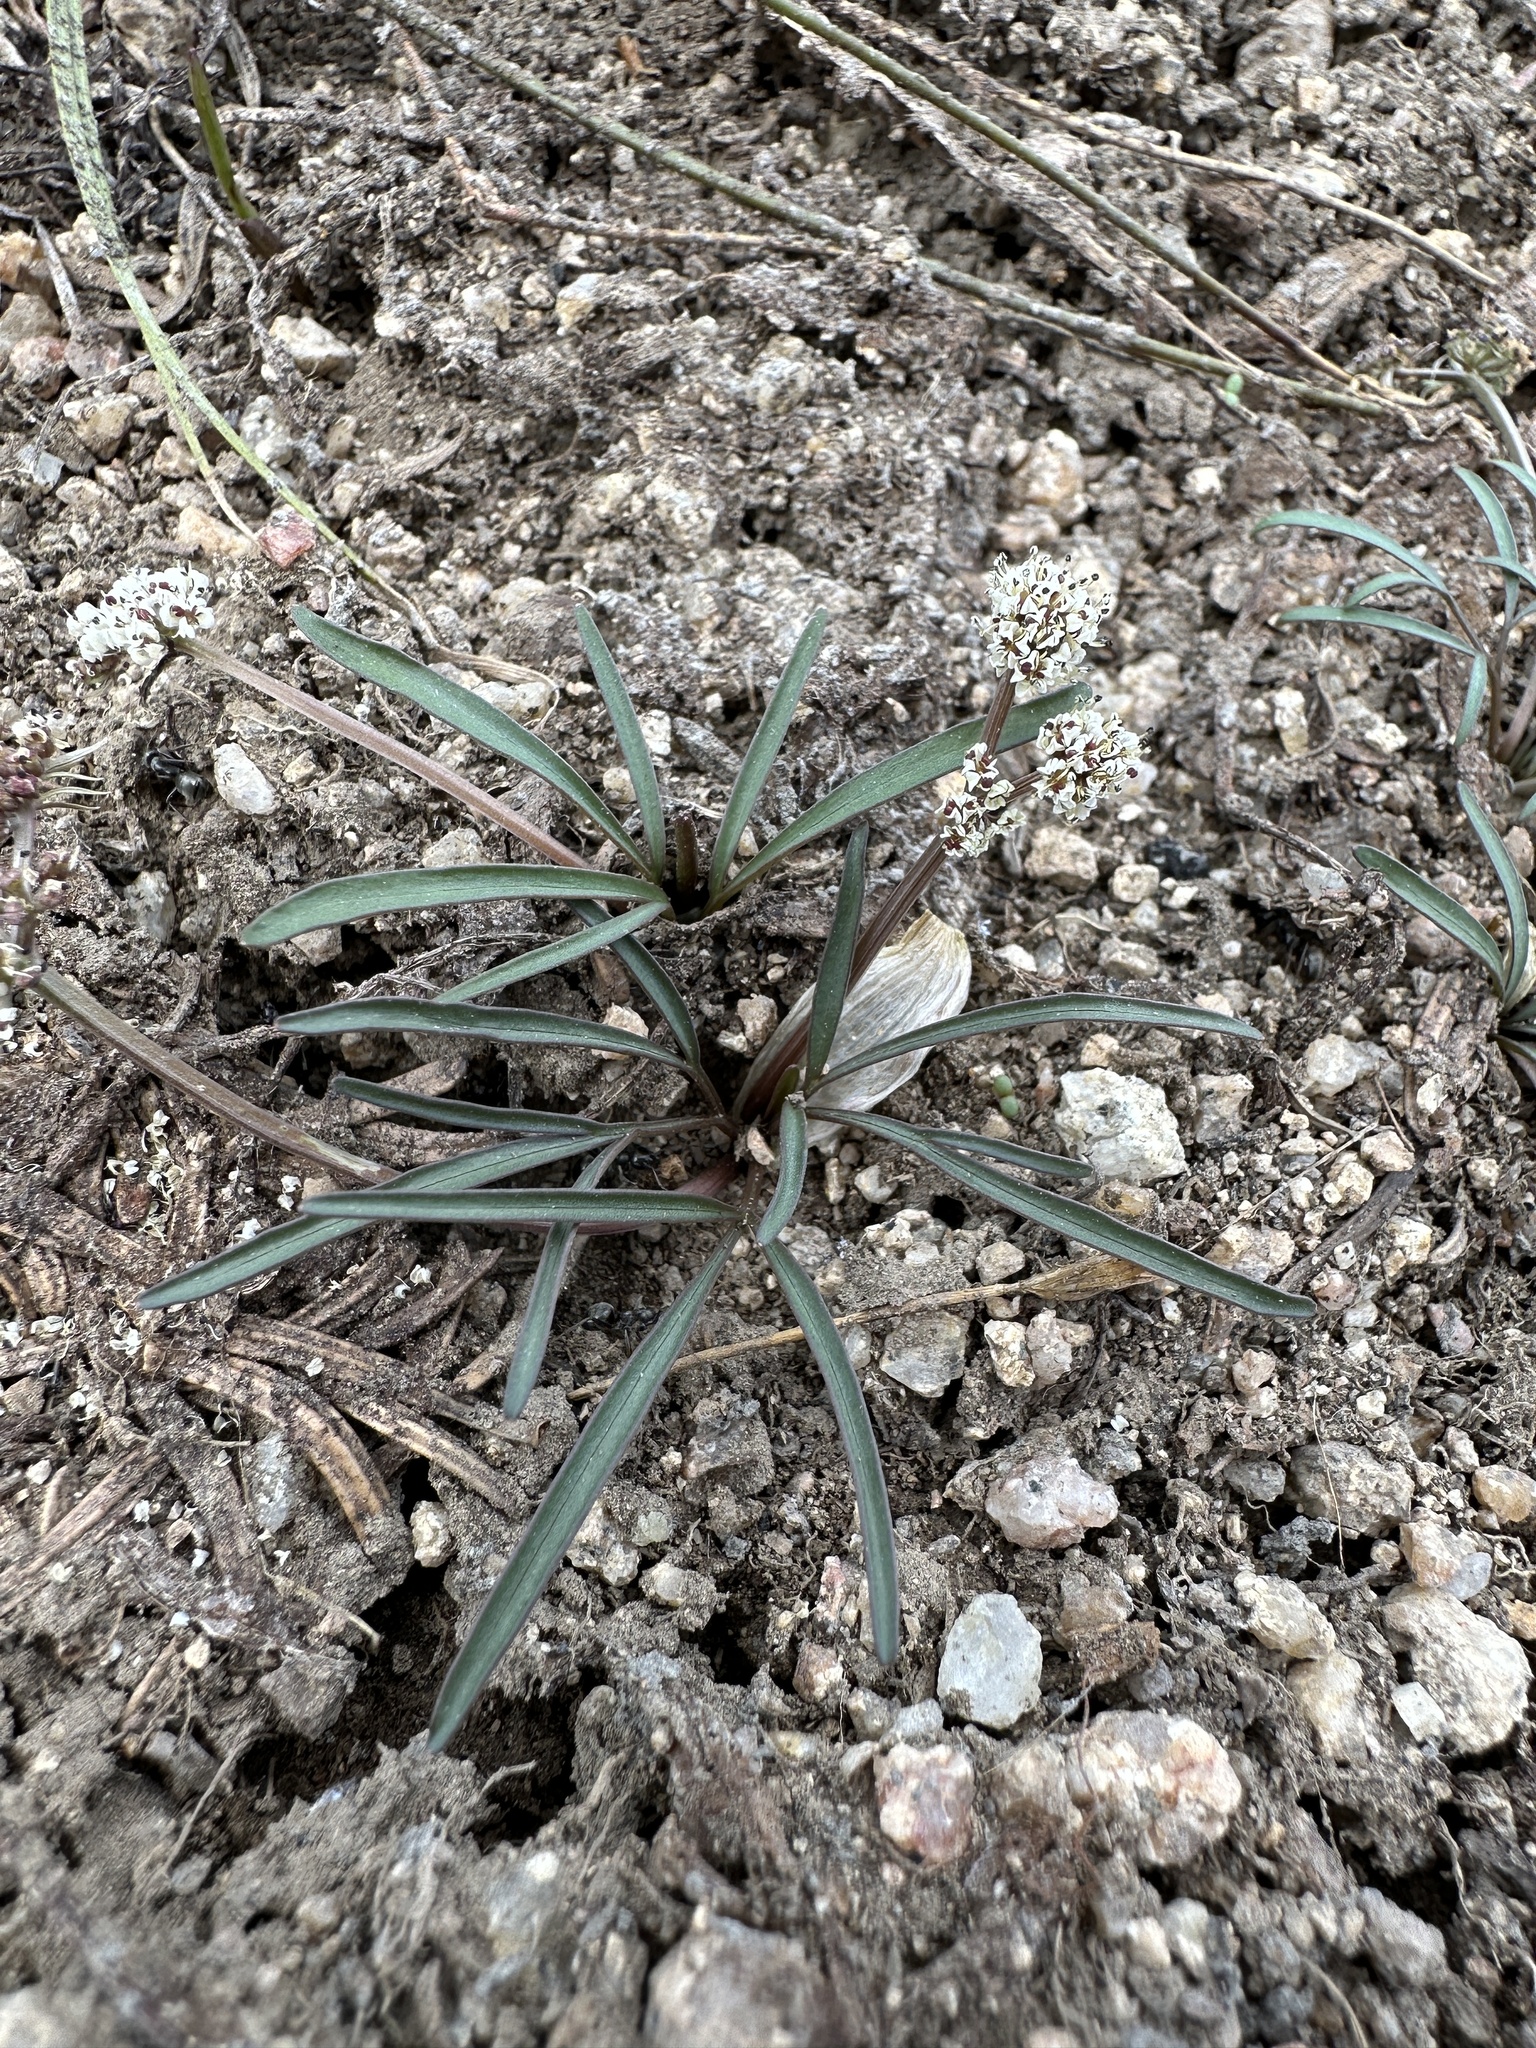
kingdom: Plantae
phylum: Tracheophyta
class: Magnoliopsida
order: Apiales
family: Apiaceae
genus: Lomatium
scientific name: Lomatium linearifolium
